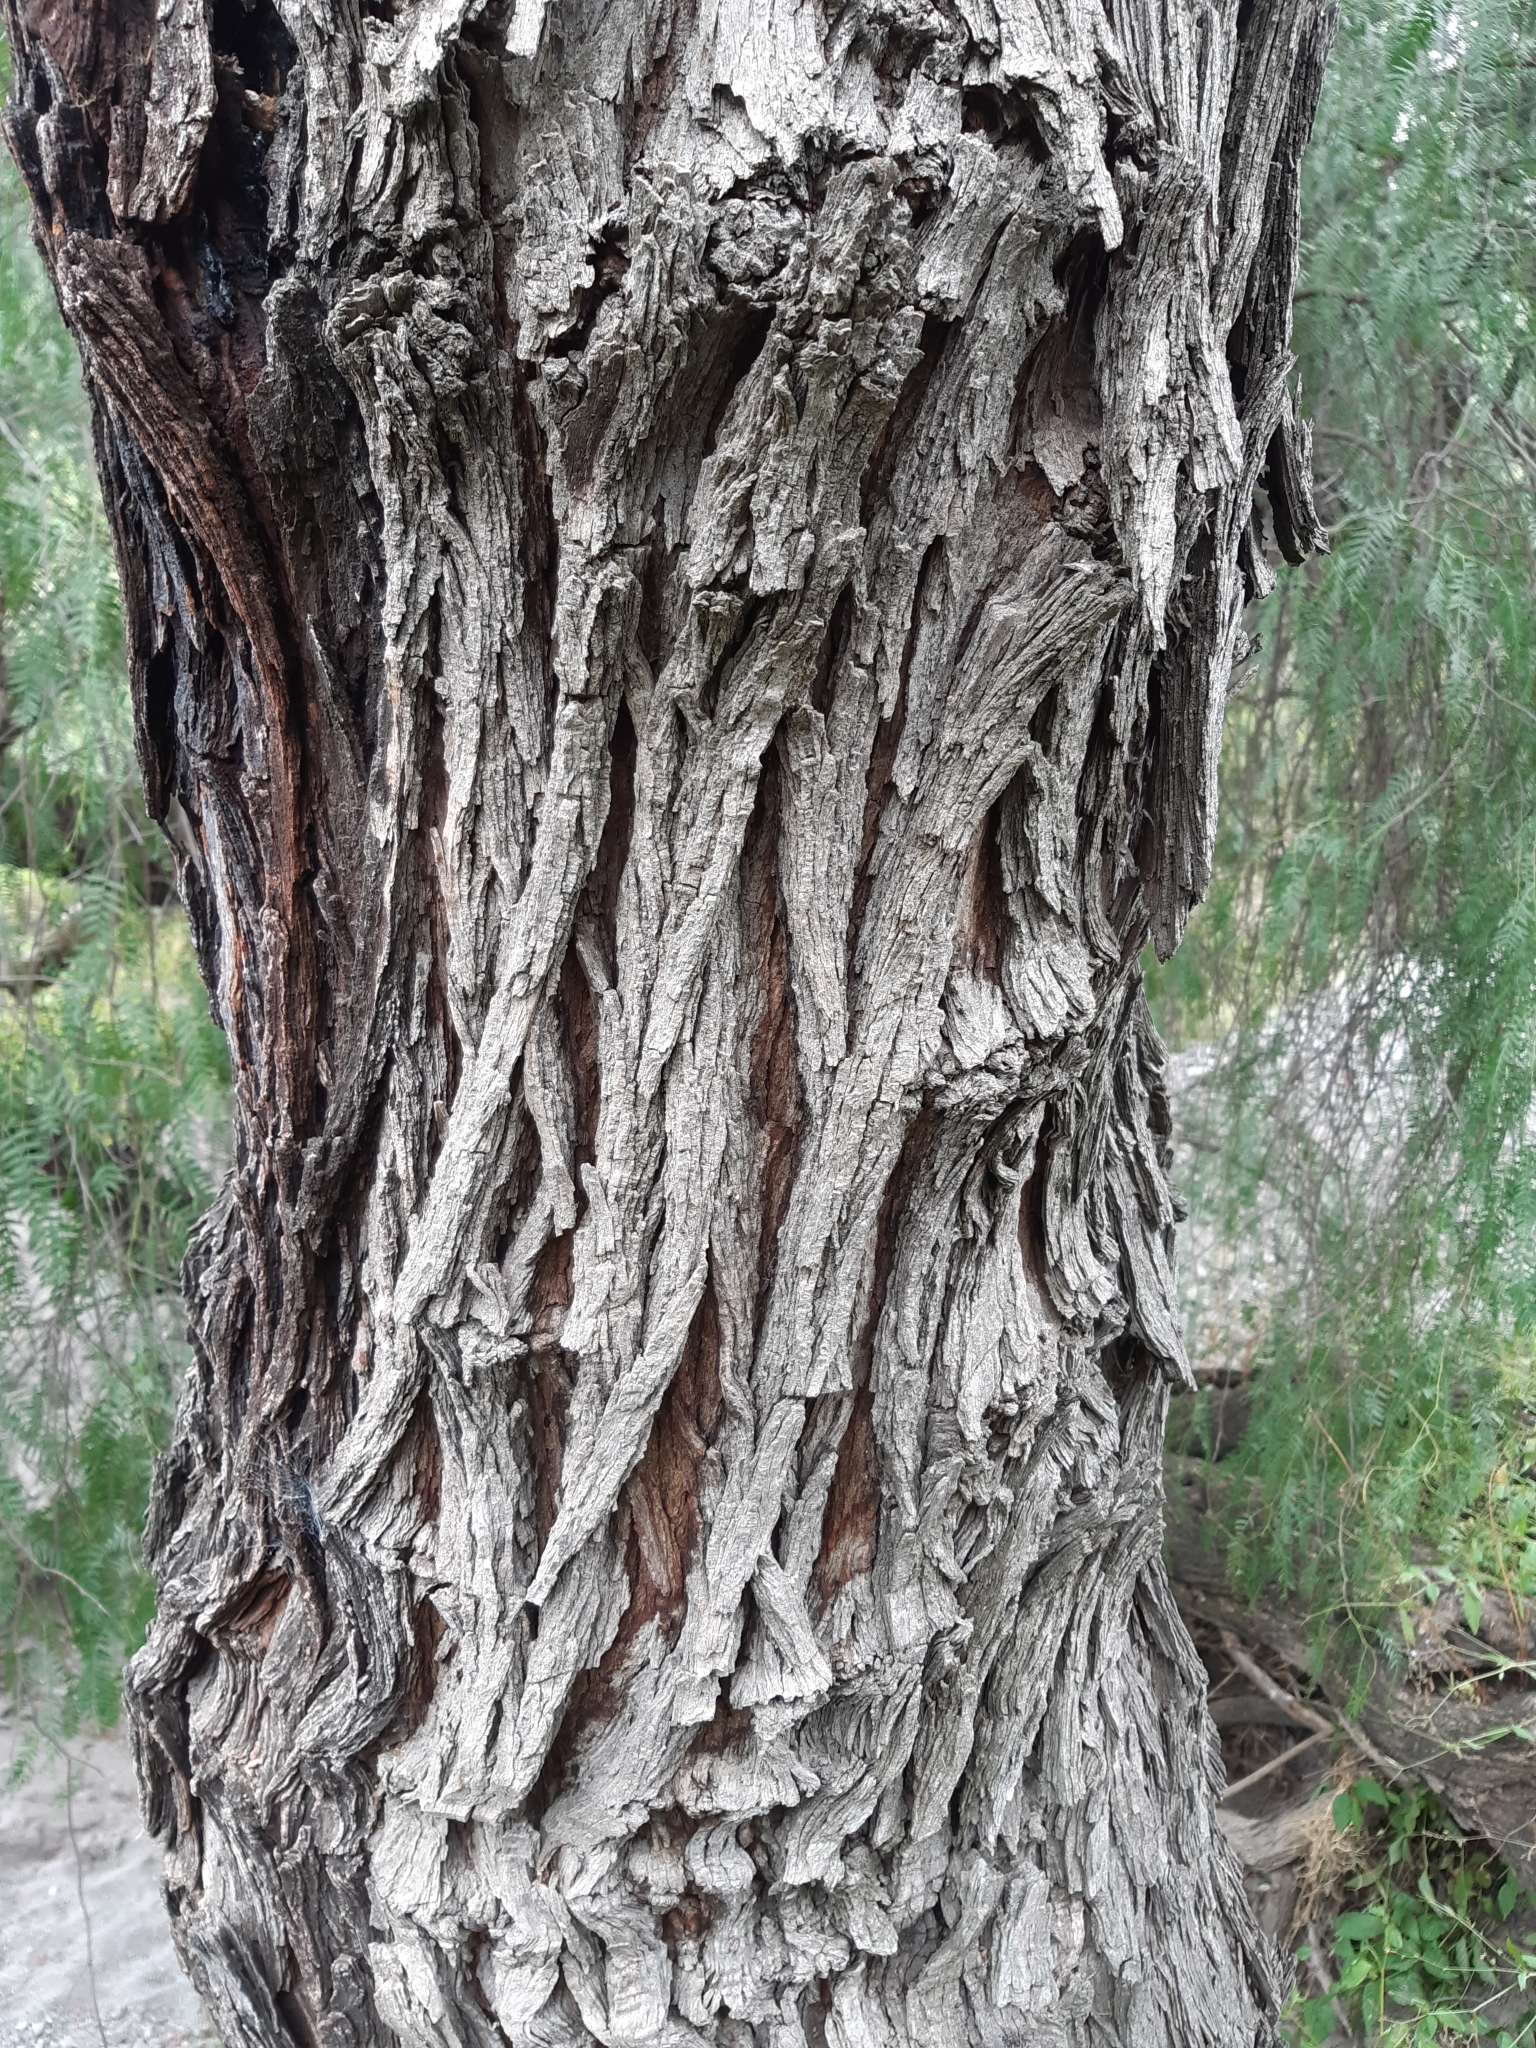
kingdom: Plantae
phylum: Tracheophyta
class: Magnoliopsida
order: Fabales
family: Fabaceae
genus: Prosopis
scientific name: Prosopis laevigata
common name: Smooth mesquite
